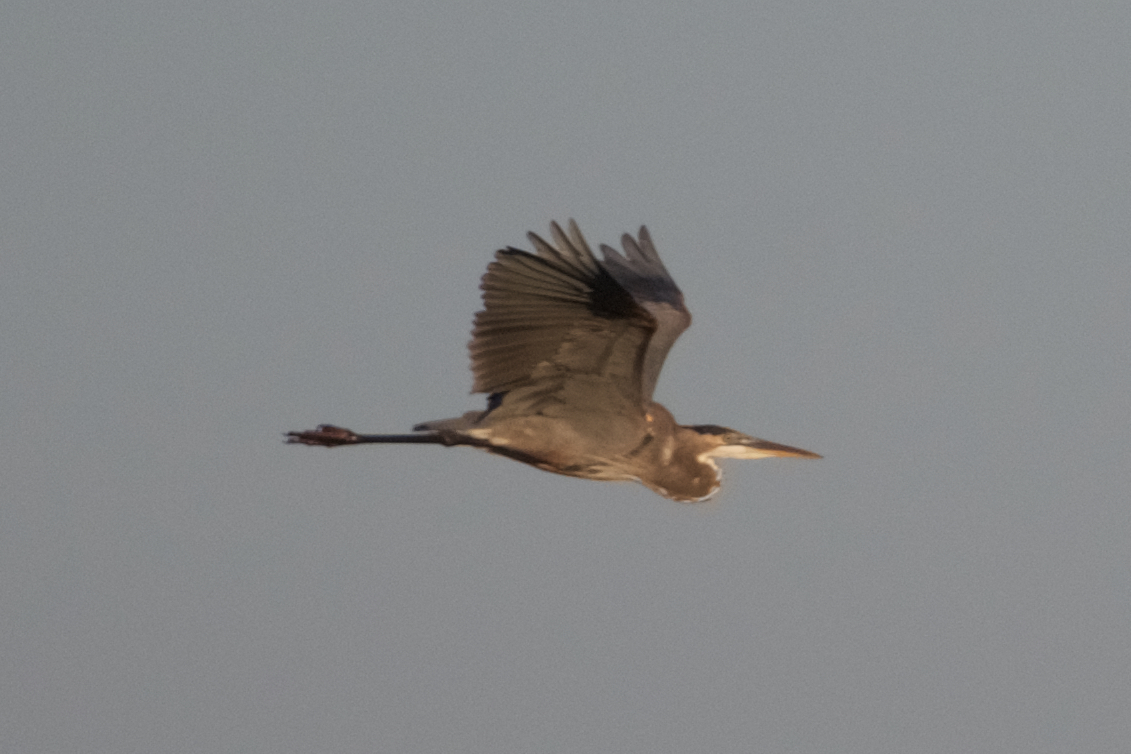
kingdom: Animalia
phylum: Chordata
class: Aves
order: Pelecaniformes
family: Ardeidae
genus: Ardea
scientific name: Ardea herodias
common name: Great blue heron
